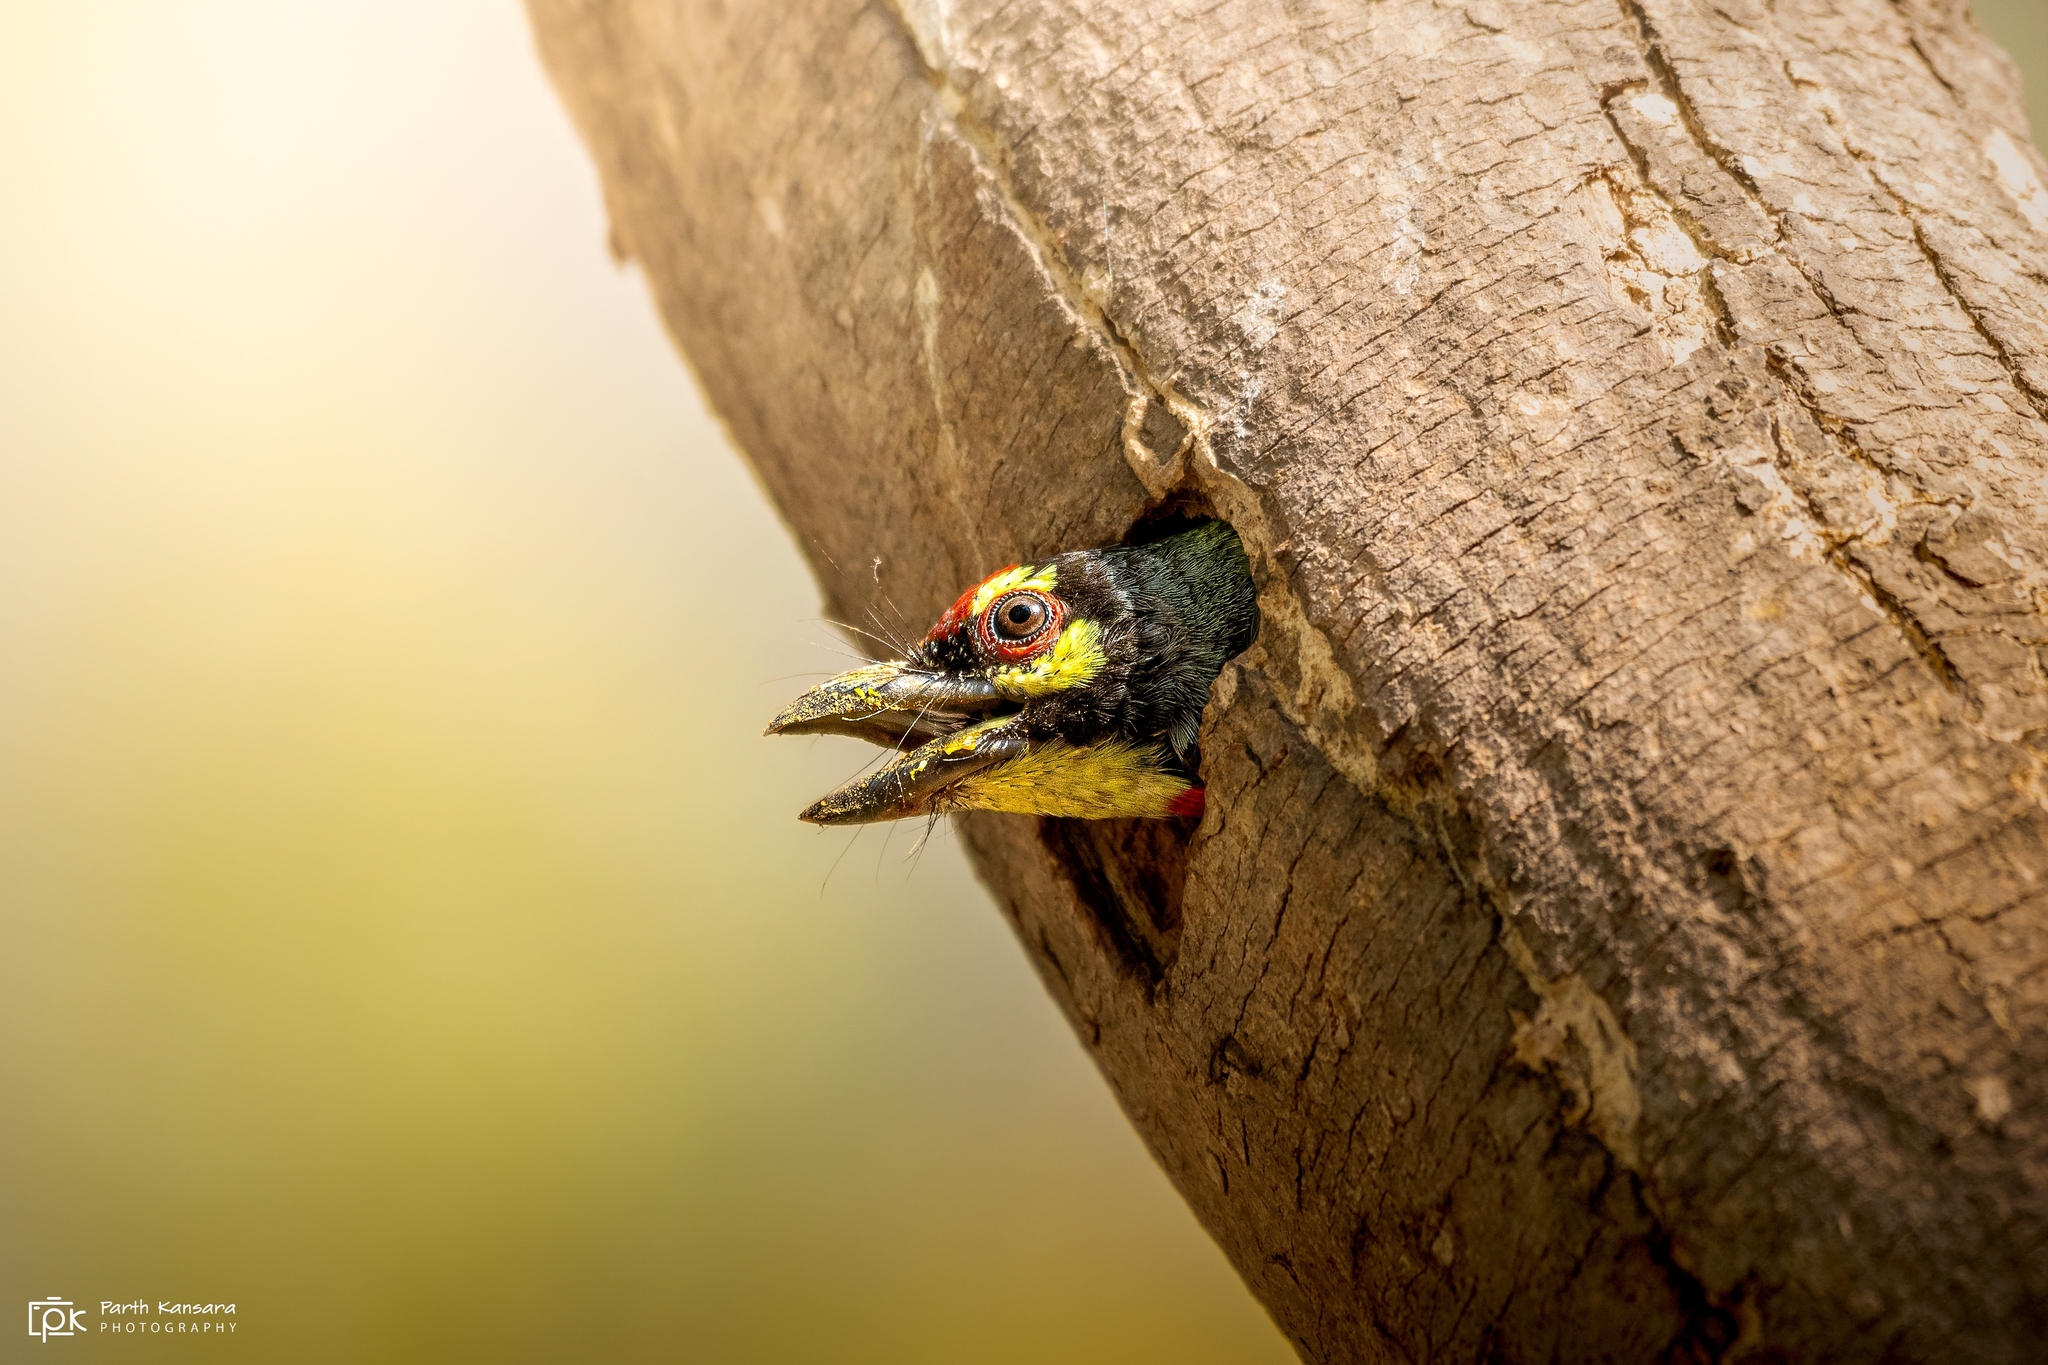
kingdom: Animalia
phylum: Chordata
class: Aves
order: Piciformes
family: Megalaimidae
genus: Psilopogon
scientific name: Psilopogon haemacephalus
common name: Coppersmith barbet
